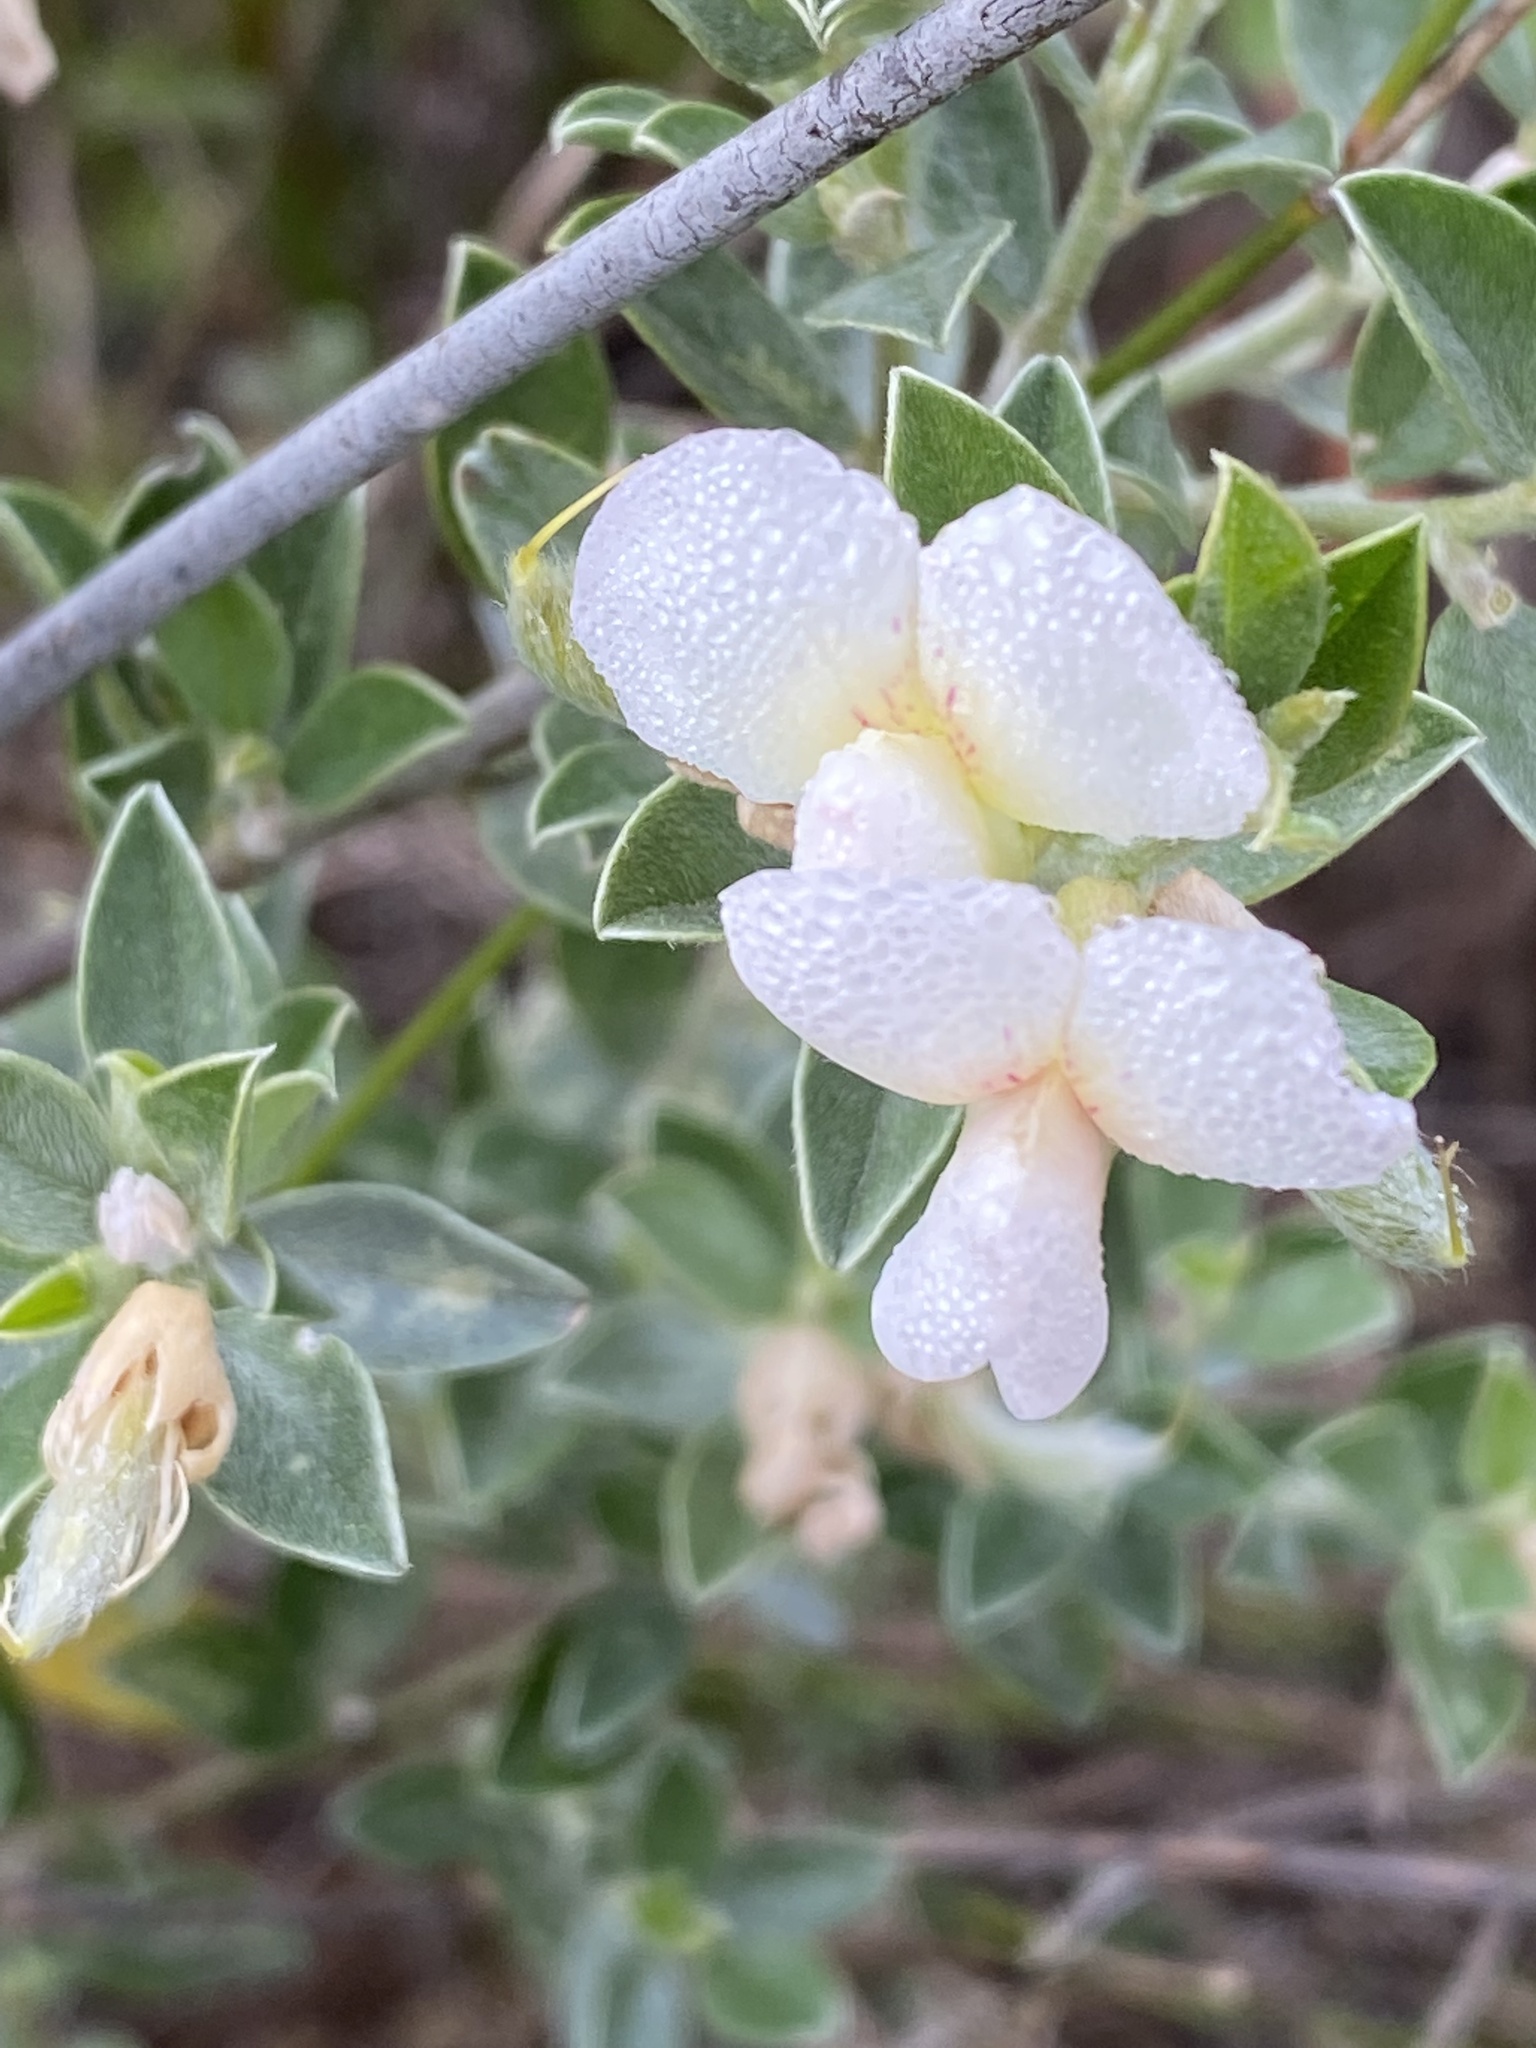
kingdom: Plantae
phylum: Tracheophyta
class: Magnoliopsida
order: Fabales
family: Fabaceae
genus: Podalyria
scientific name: Podalyria myrtillifolia
